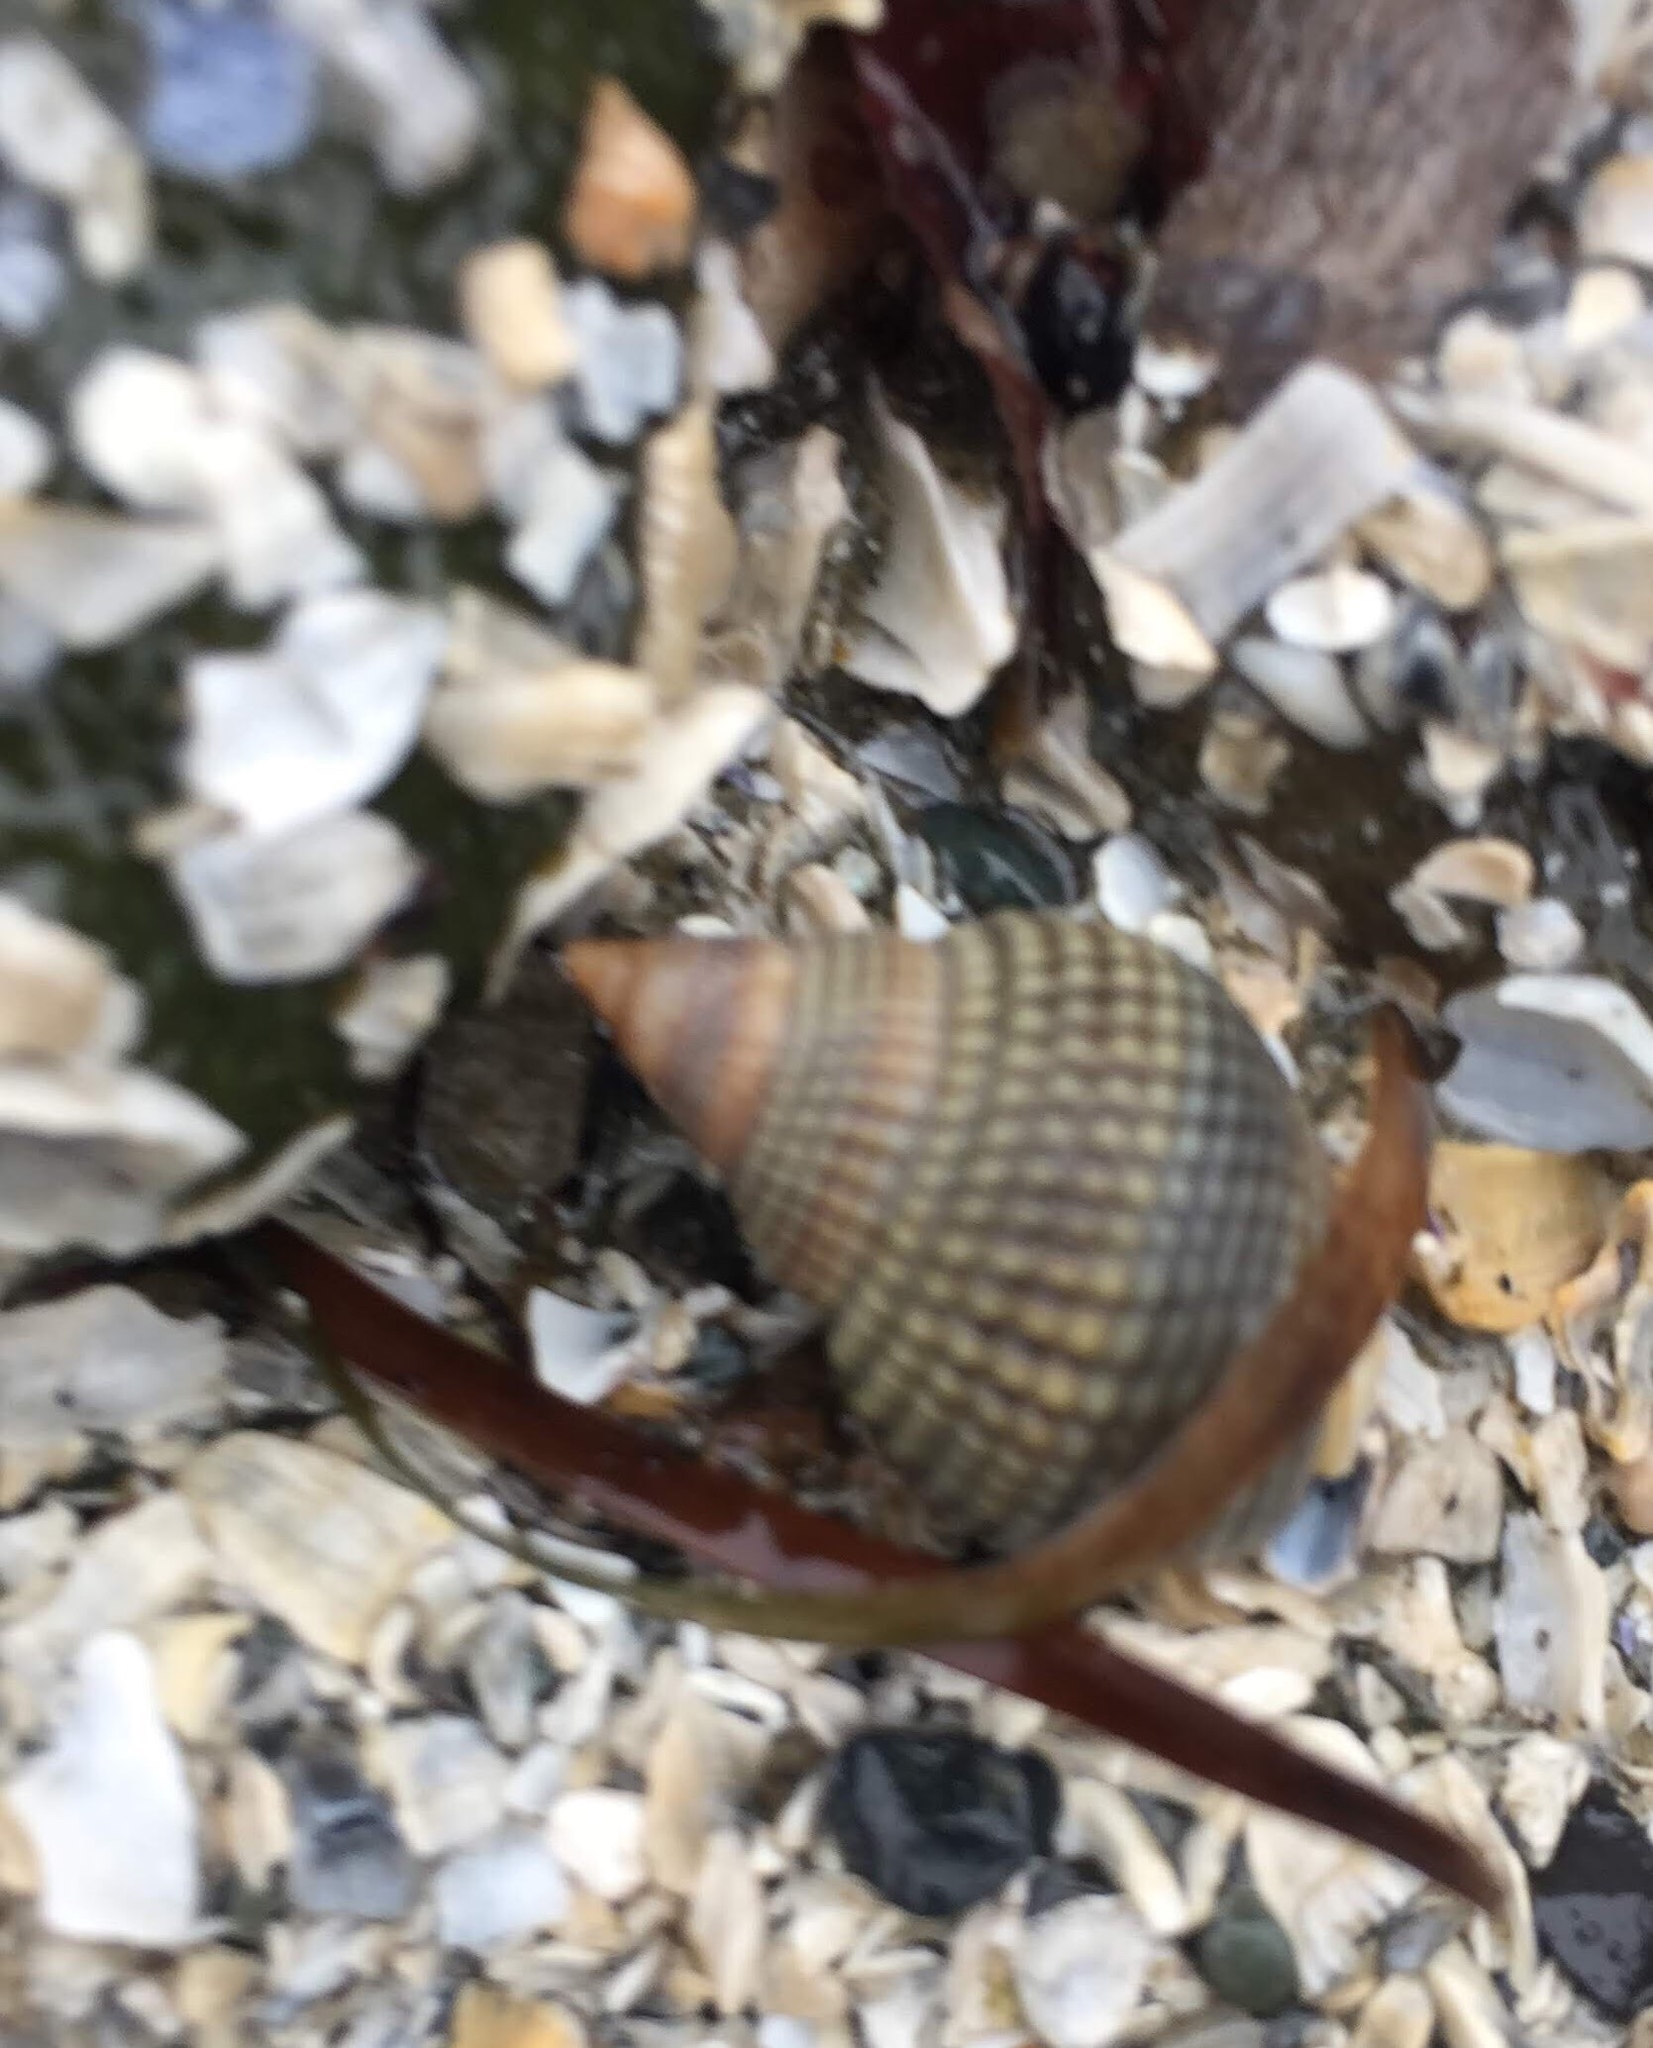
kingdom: Animalia
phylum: Mollusca
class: Gastropoda
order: Neogastropoda
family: Nassariidae
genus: Caesia
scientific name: Caesia fossata
